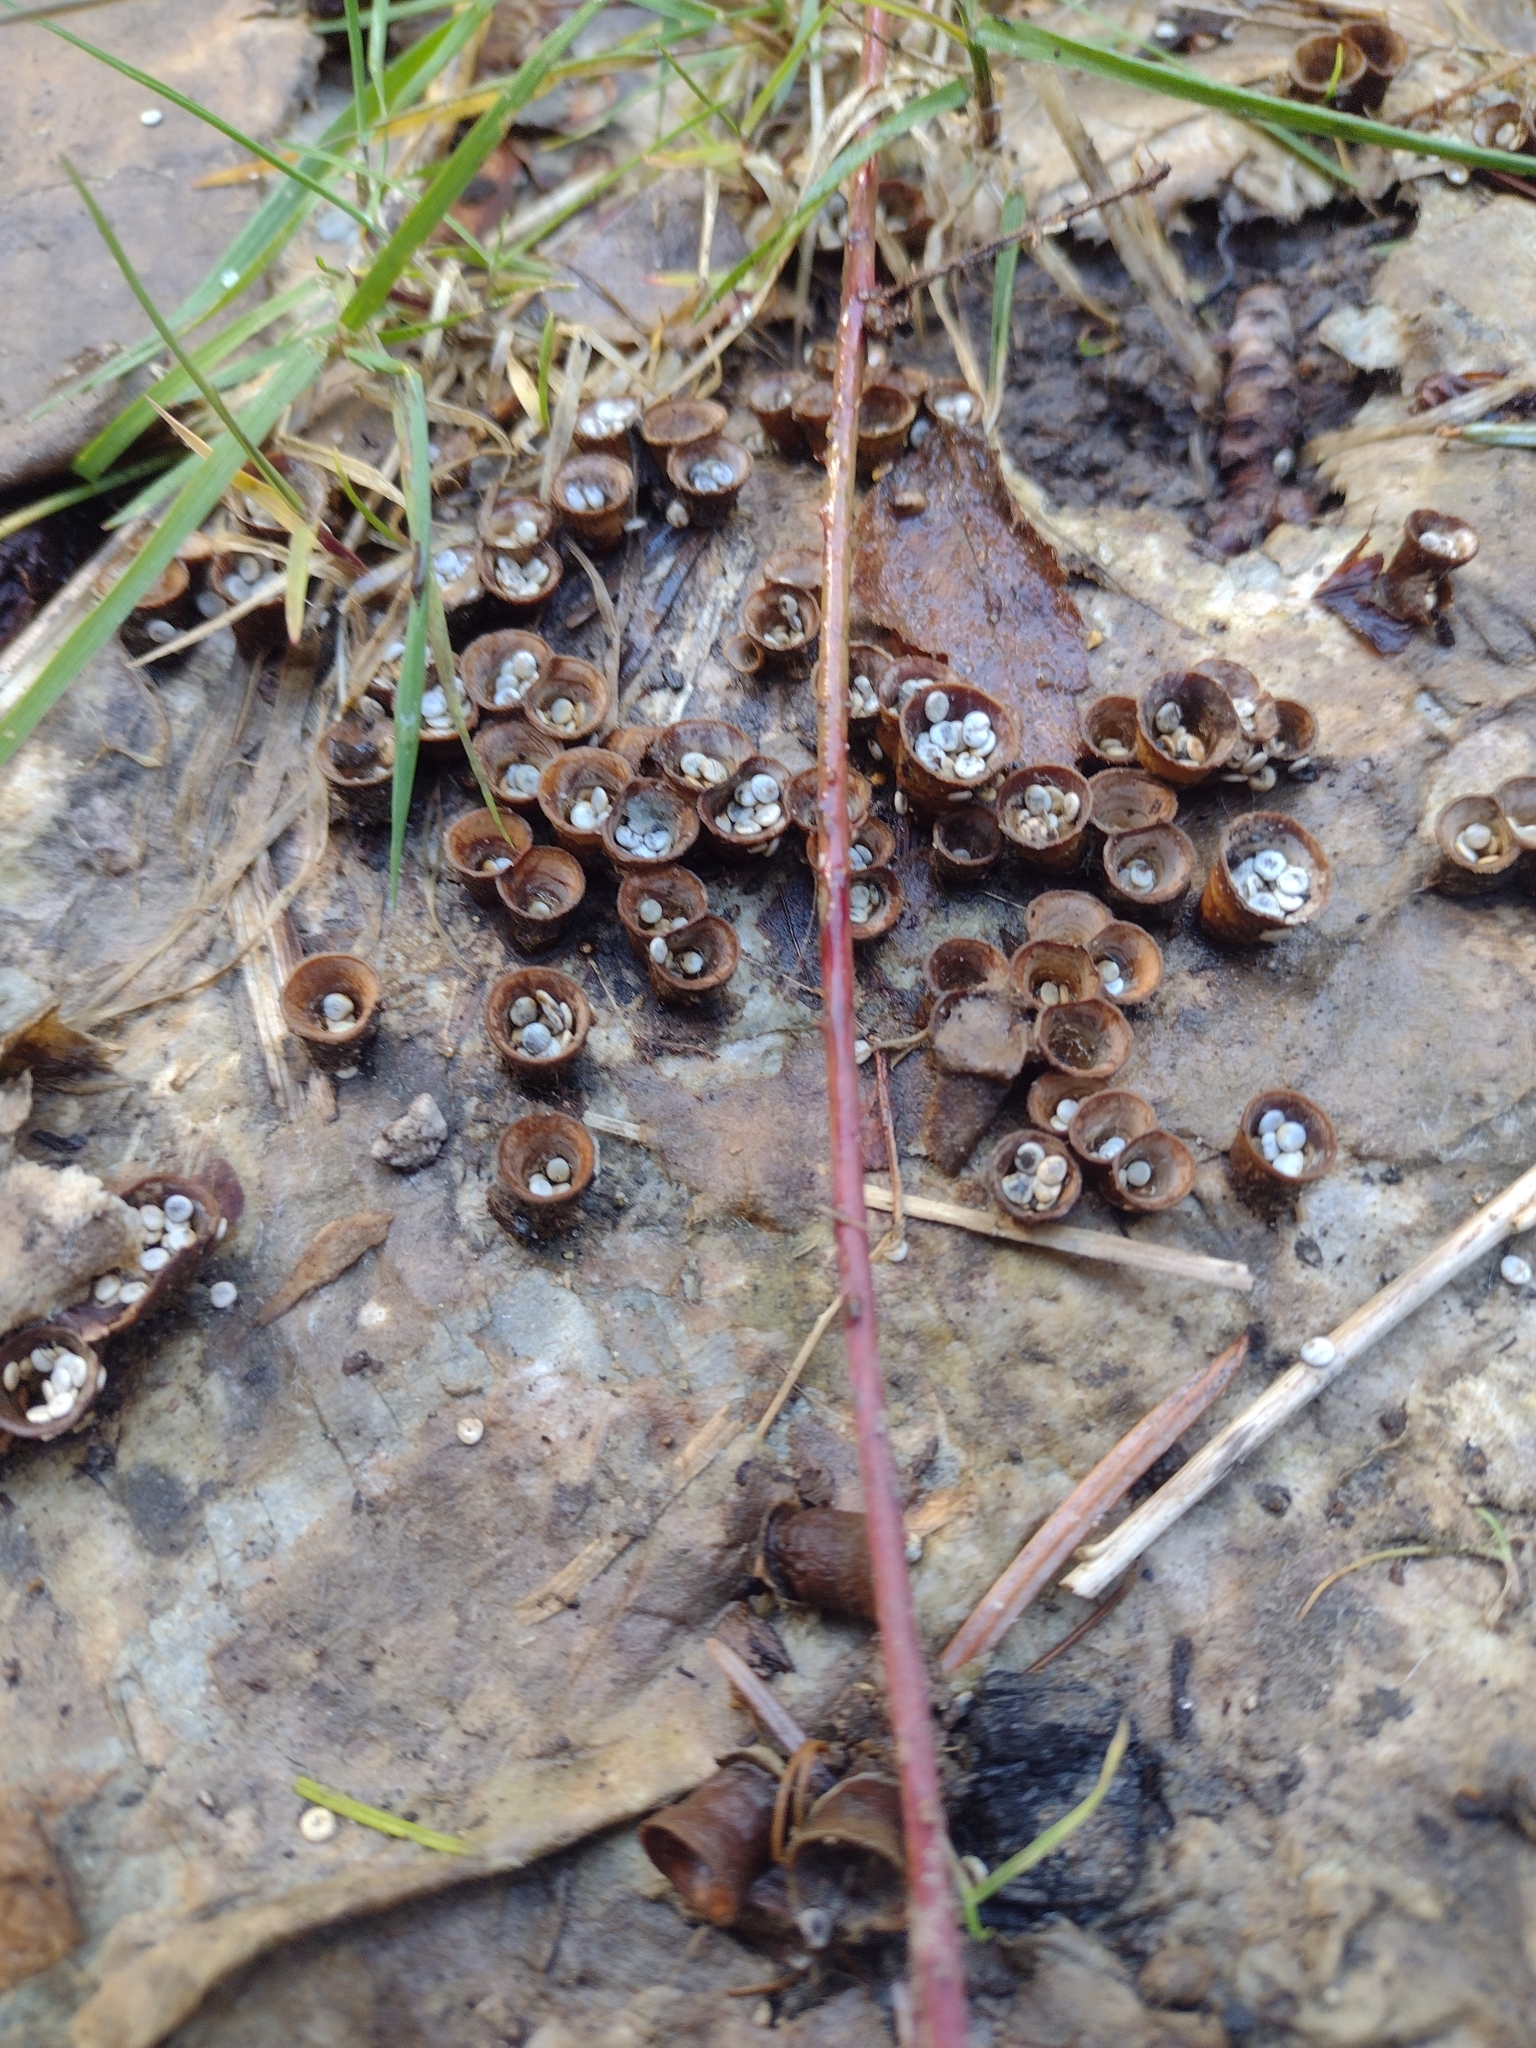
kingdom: Fungi
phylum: Basidiomycota
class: Agaricomycetes
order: Agaricales
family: Nidulariaceae
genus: Crucibulum
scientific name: Crucibulum laeve
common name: Common bird's nest
